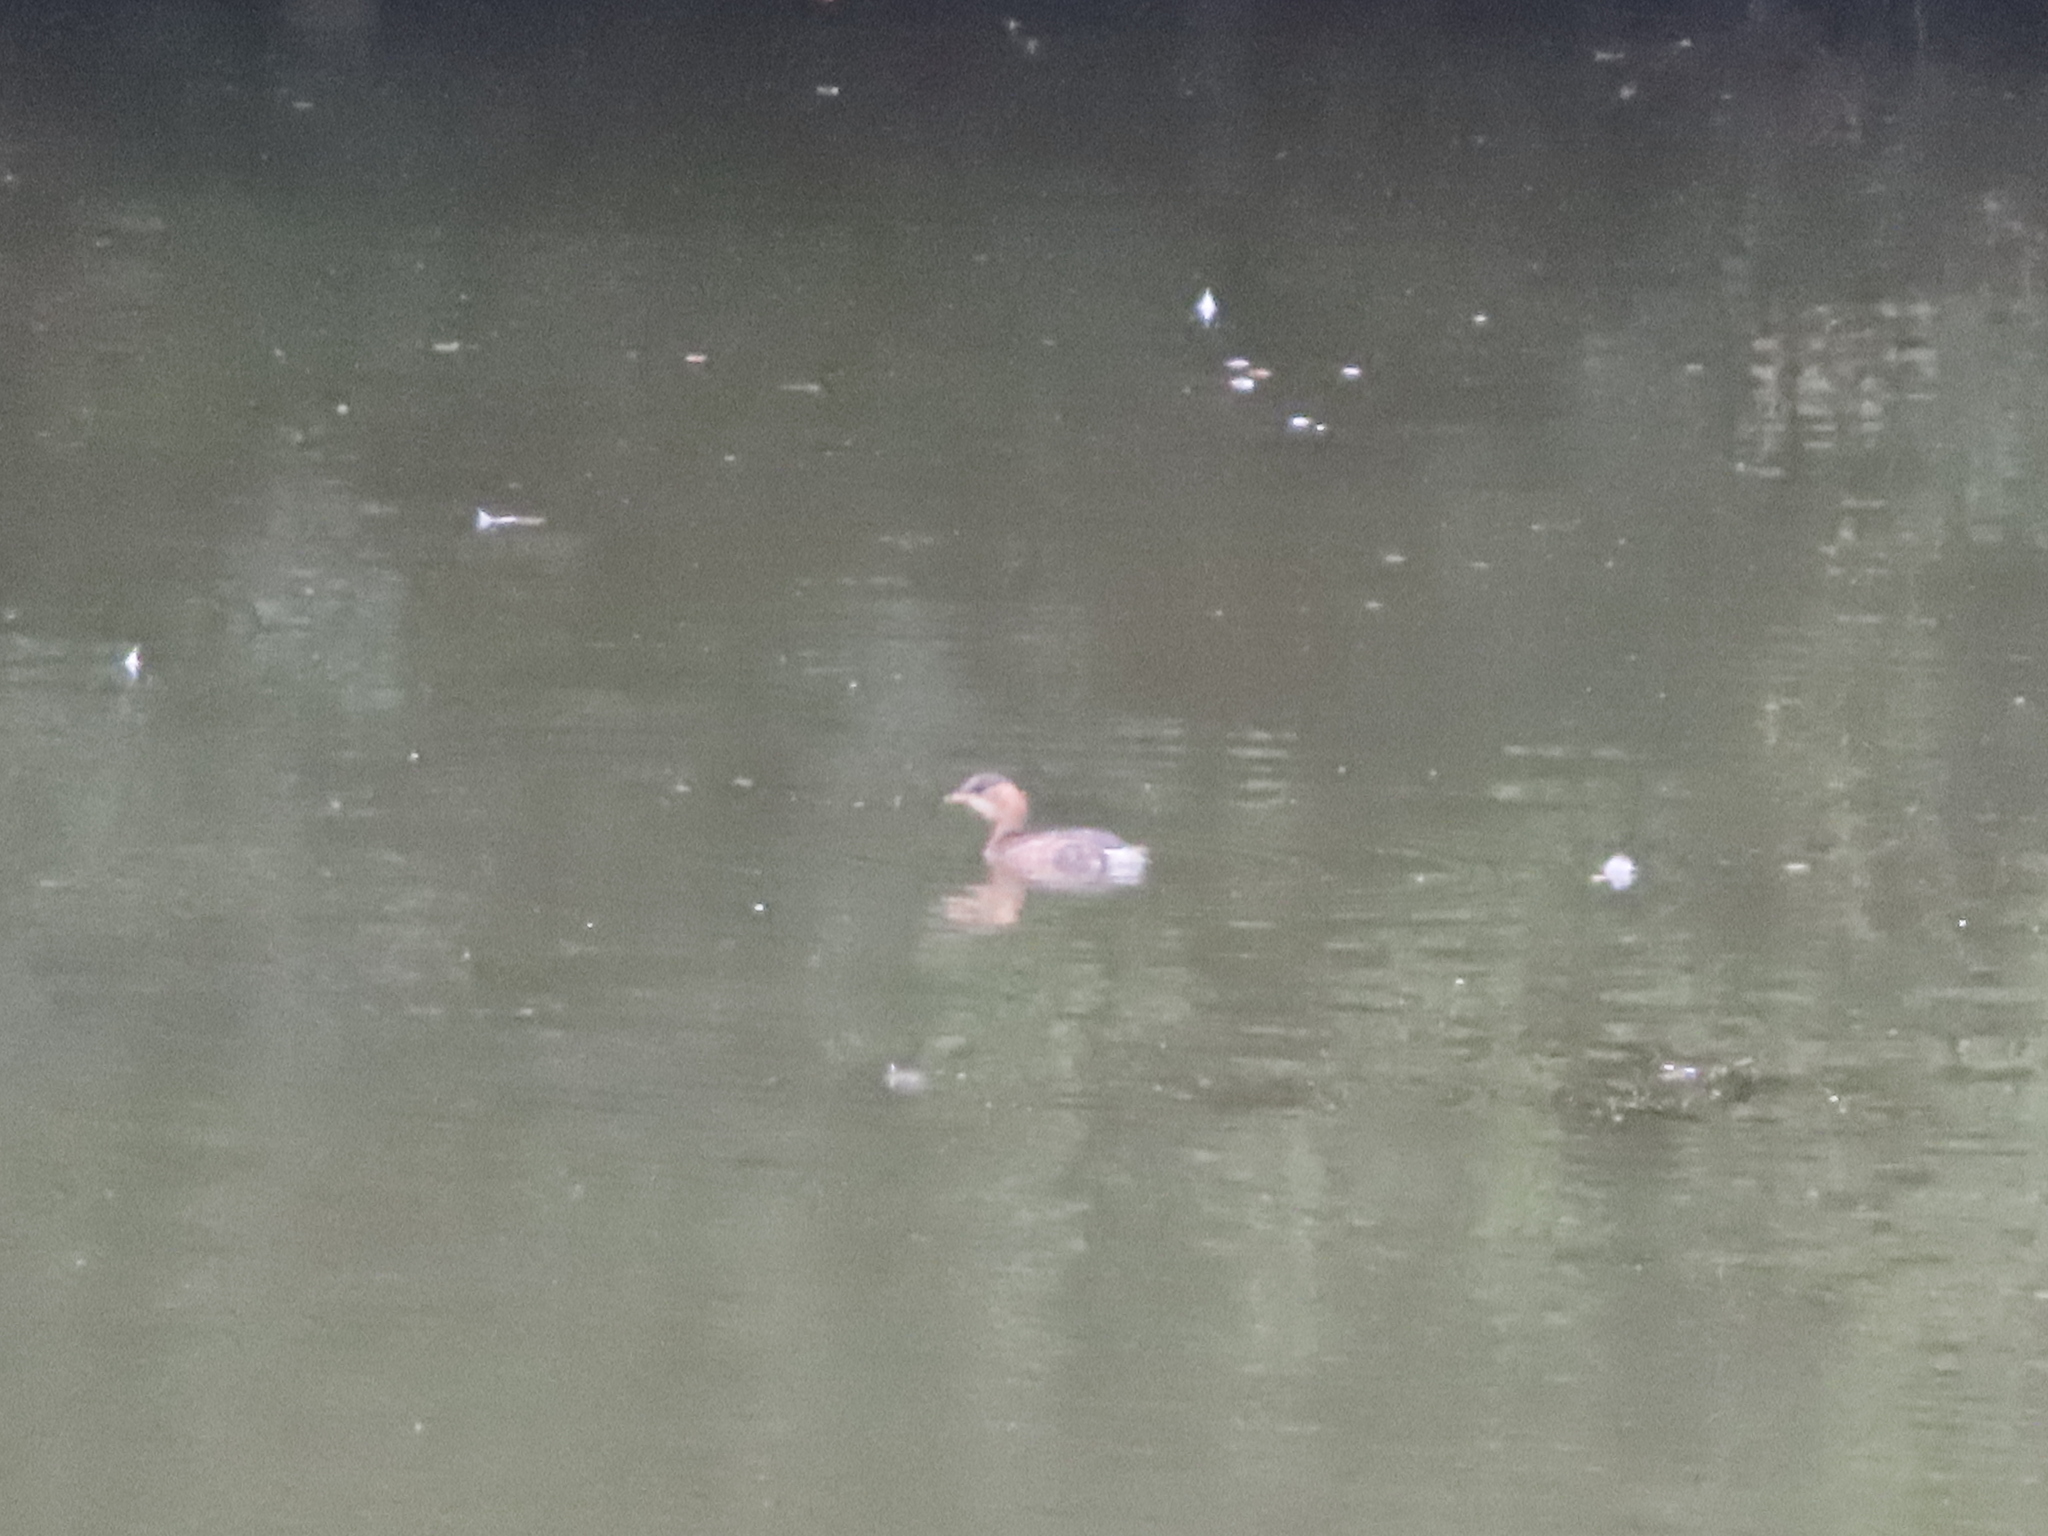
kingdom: Animalia
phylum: Chordata
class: Aves
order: Podicipediformes
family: Podicipedidae
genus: Tachybaptus
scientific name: Tachybaptus ruficollis
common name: Little grebe
